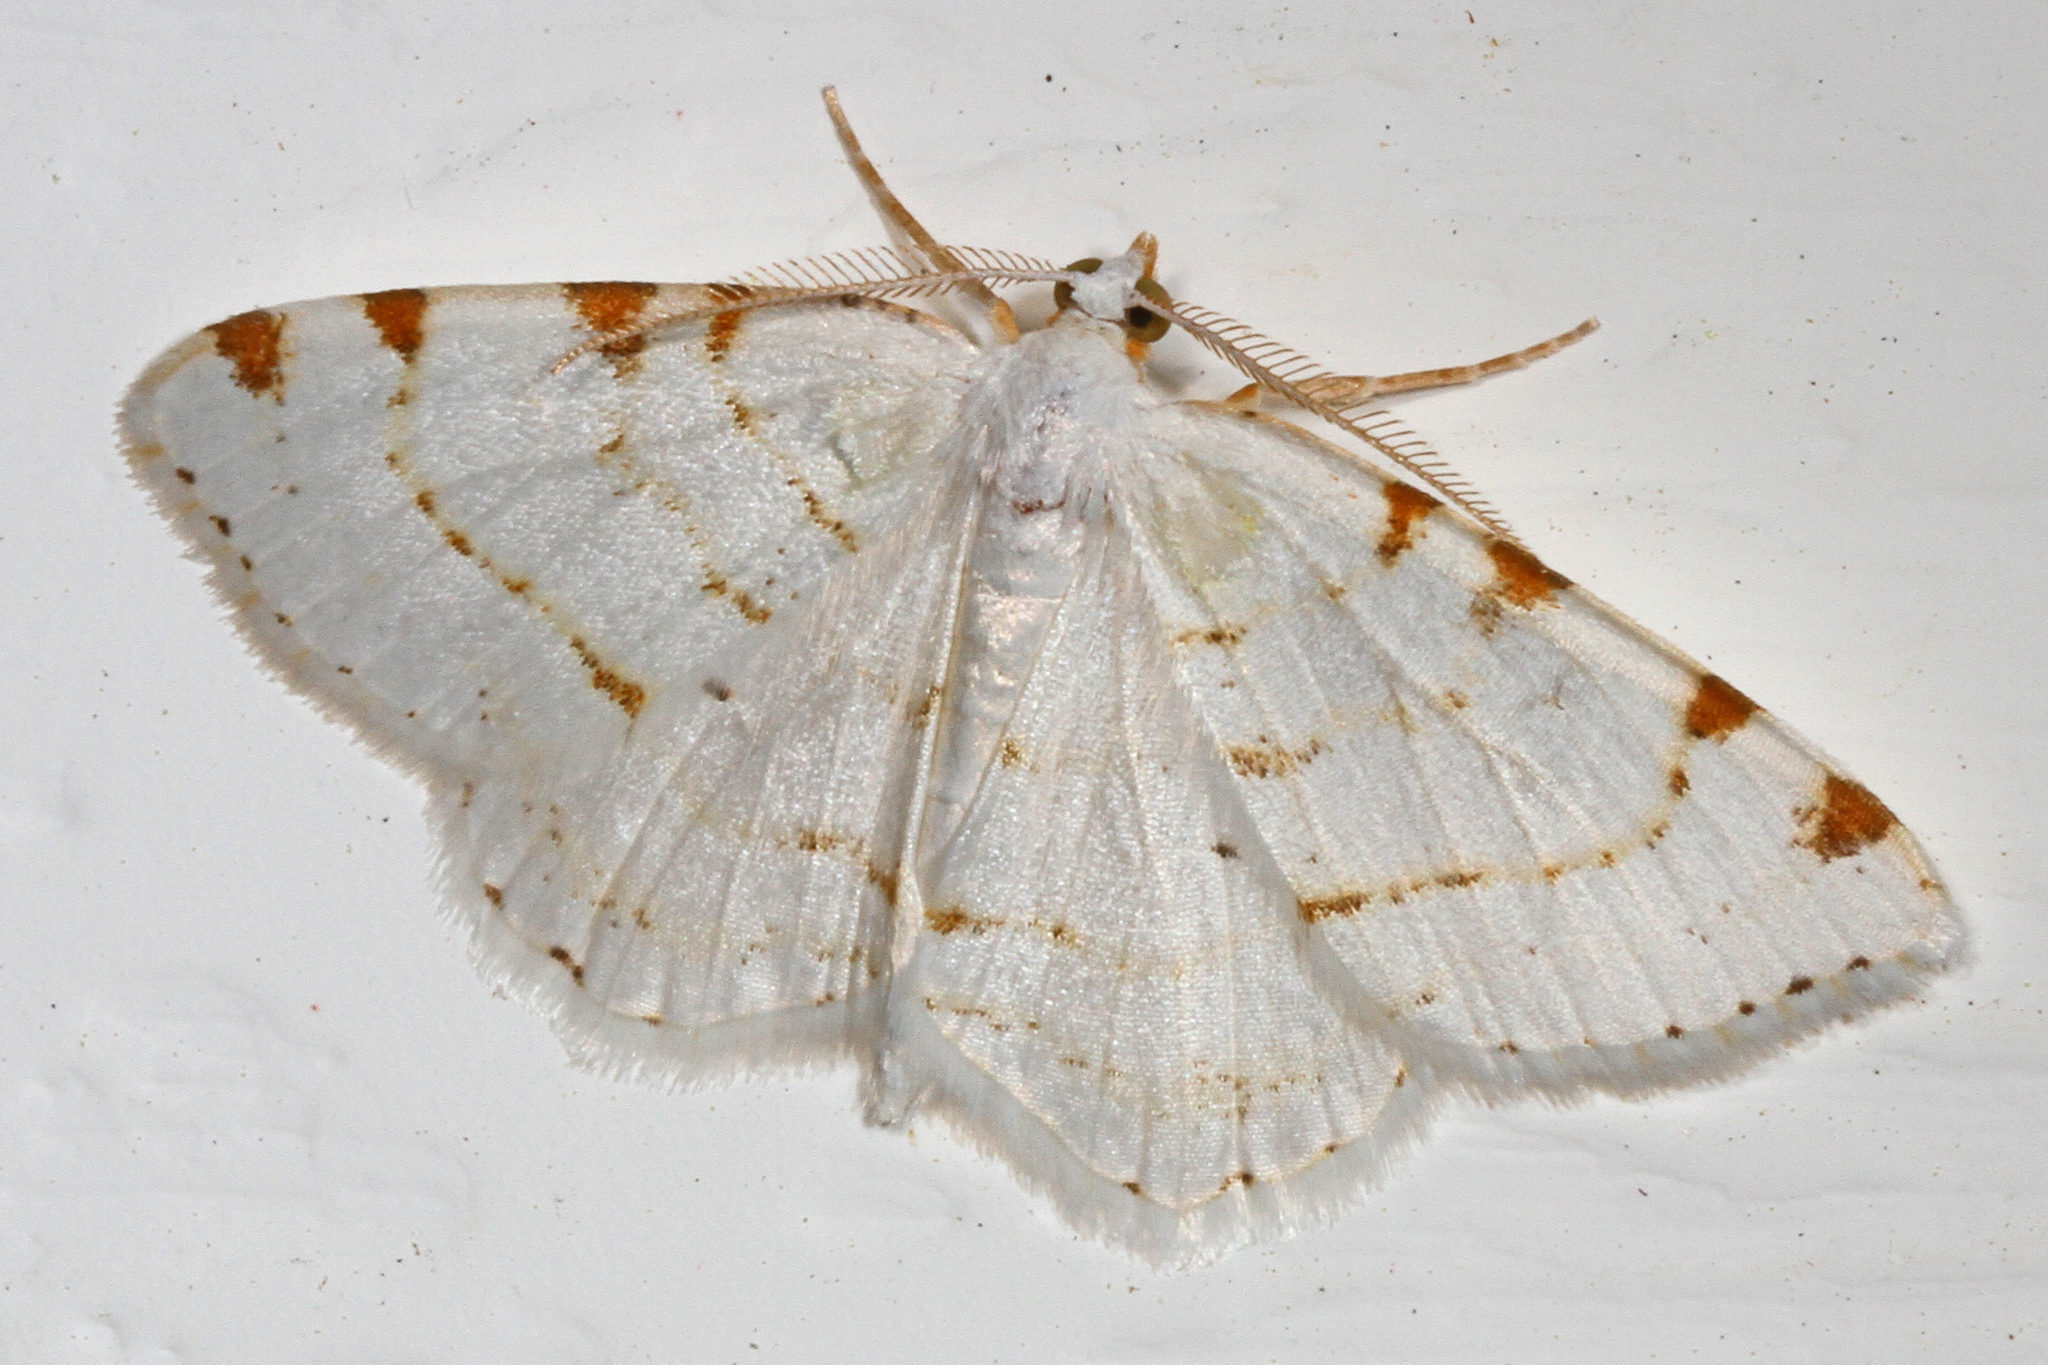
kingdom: Animalia
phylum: Arthropoda
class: Insecta
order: Lepidoptera
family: Geometridae
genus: Macaria
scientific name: Macaria pustularia
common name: Lesser maple spanworm moth
